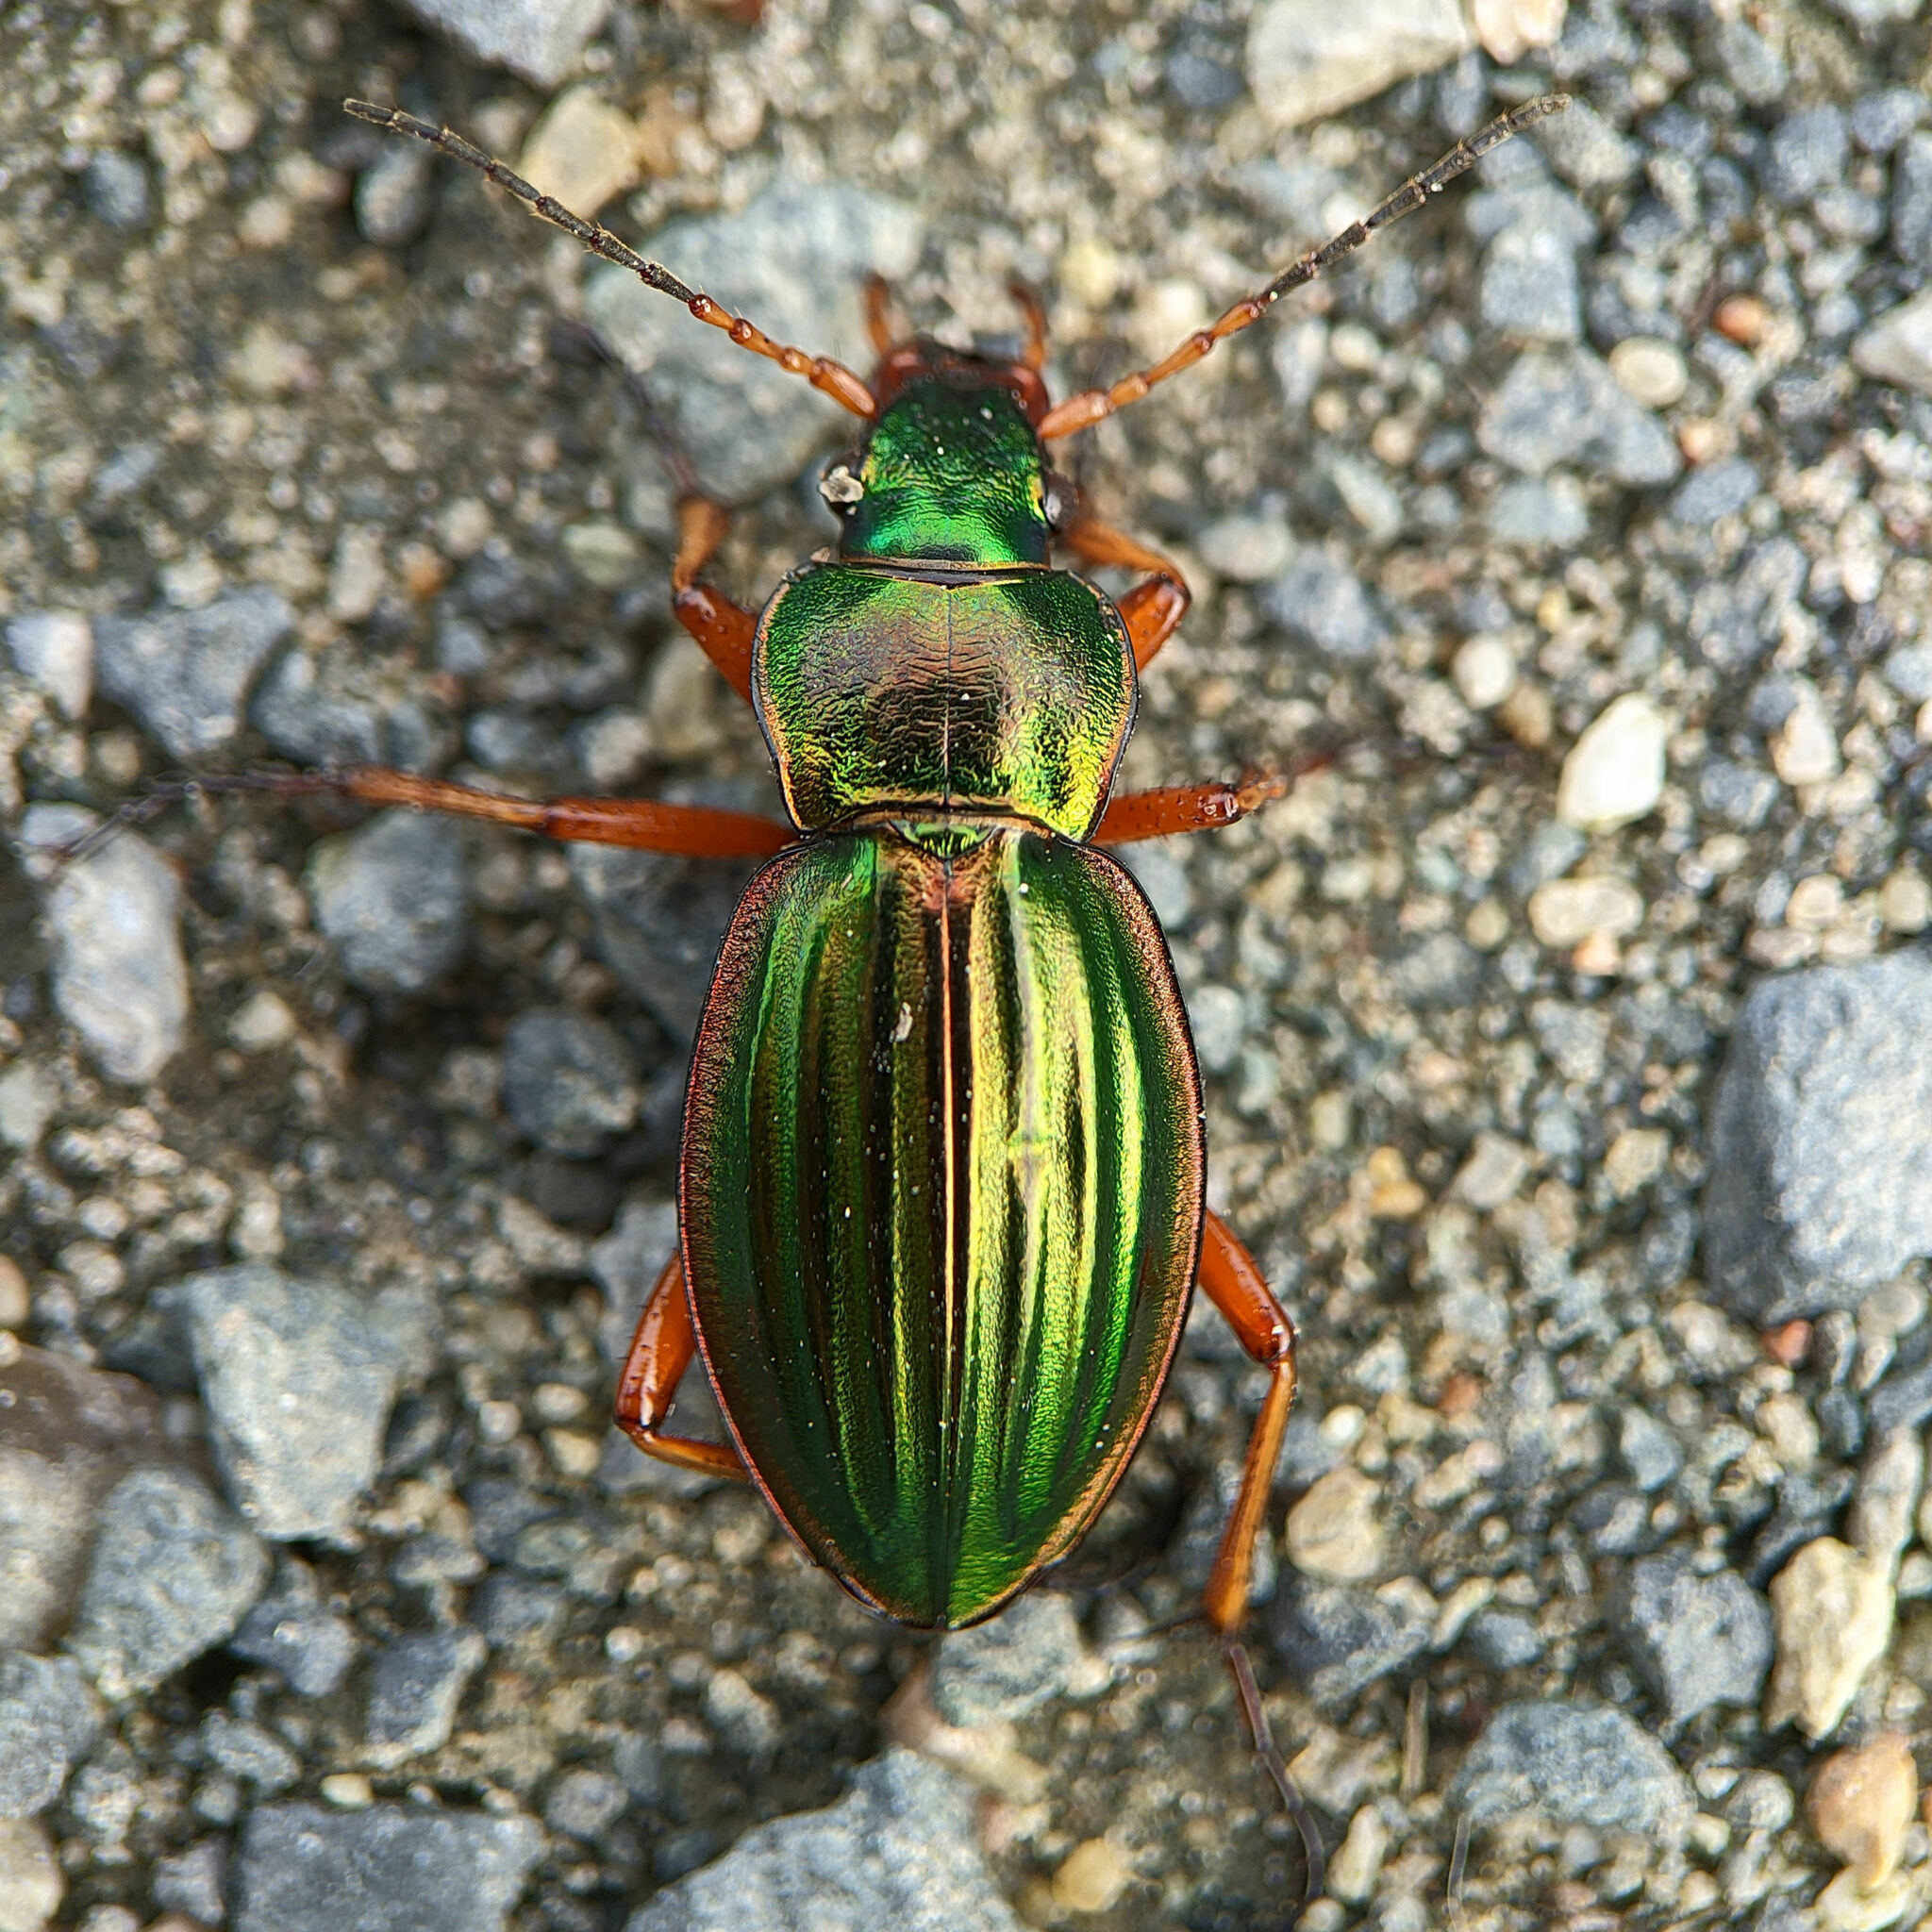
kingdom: Animalia
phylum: Arthropoda
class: Insecta
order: Coleoptera
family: Carabidae
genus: Carabus
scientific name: Carabus auratus
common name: Golden ground beetle
